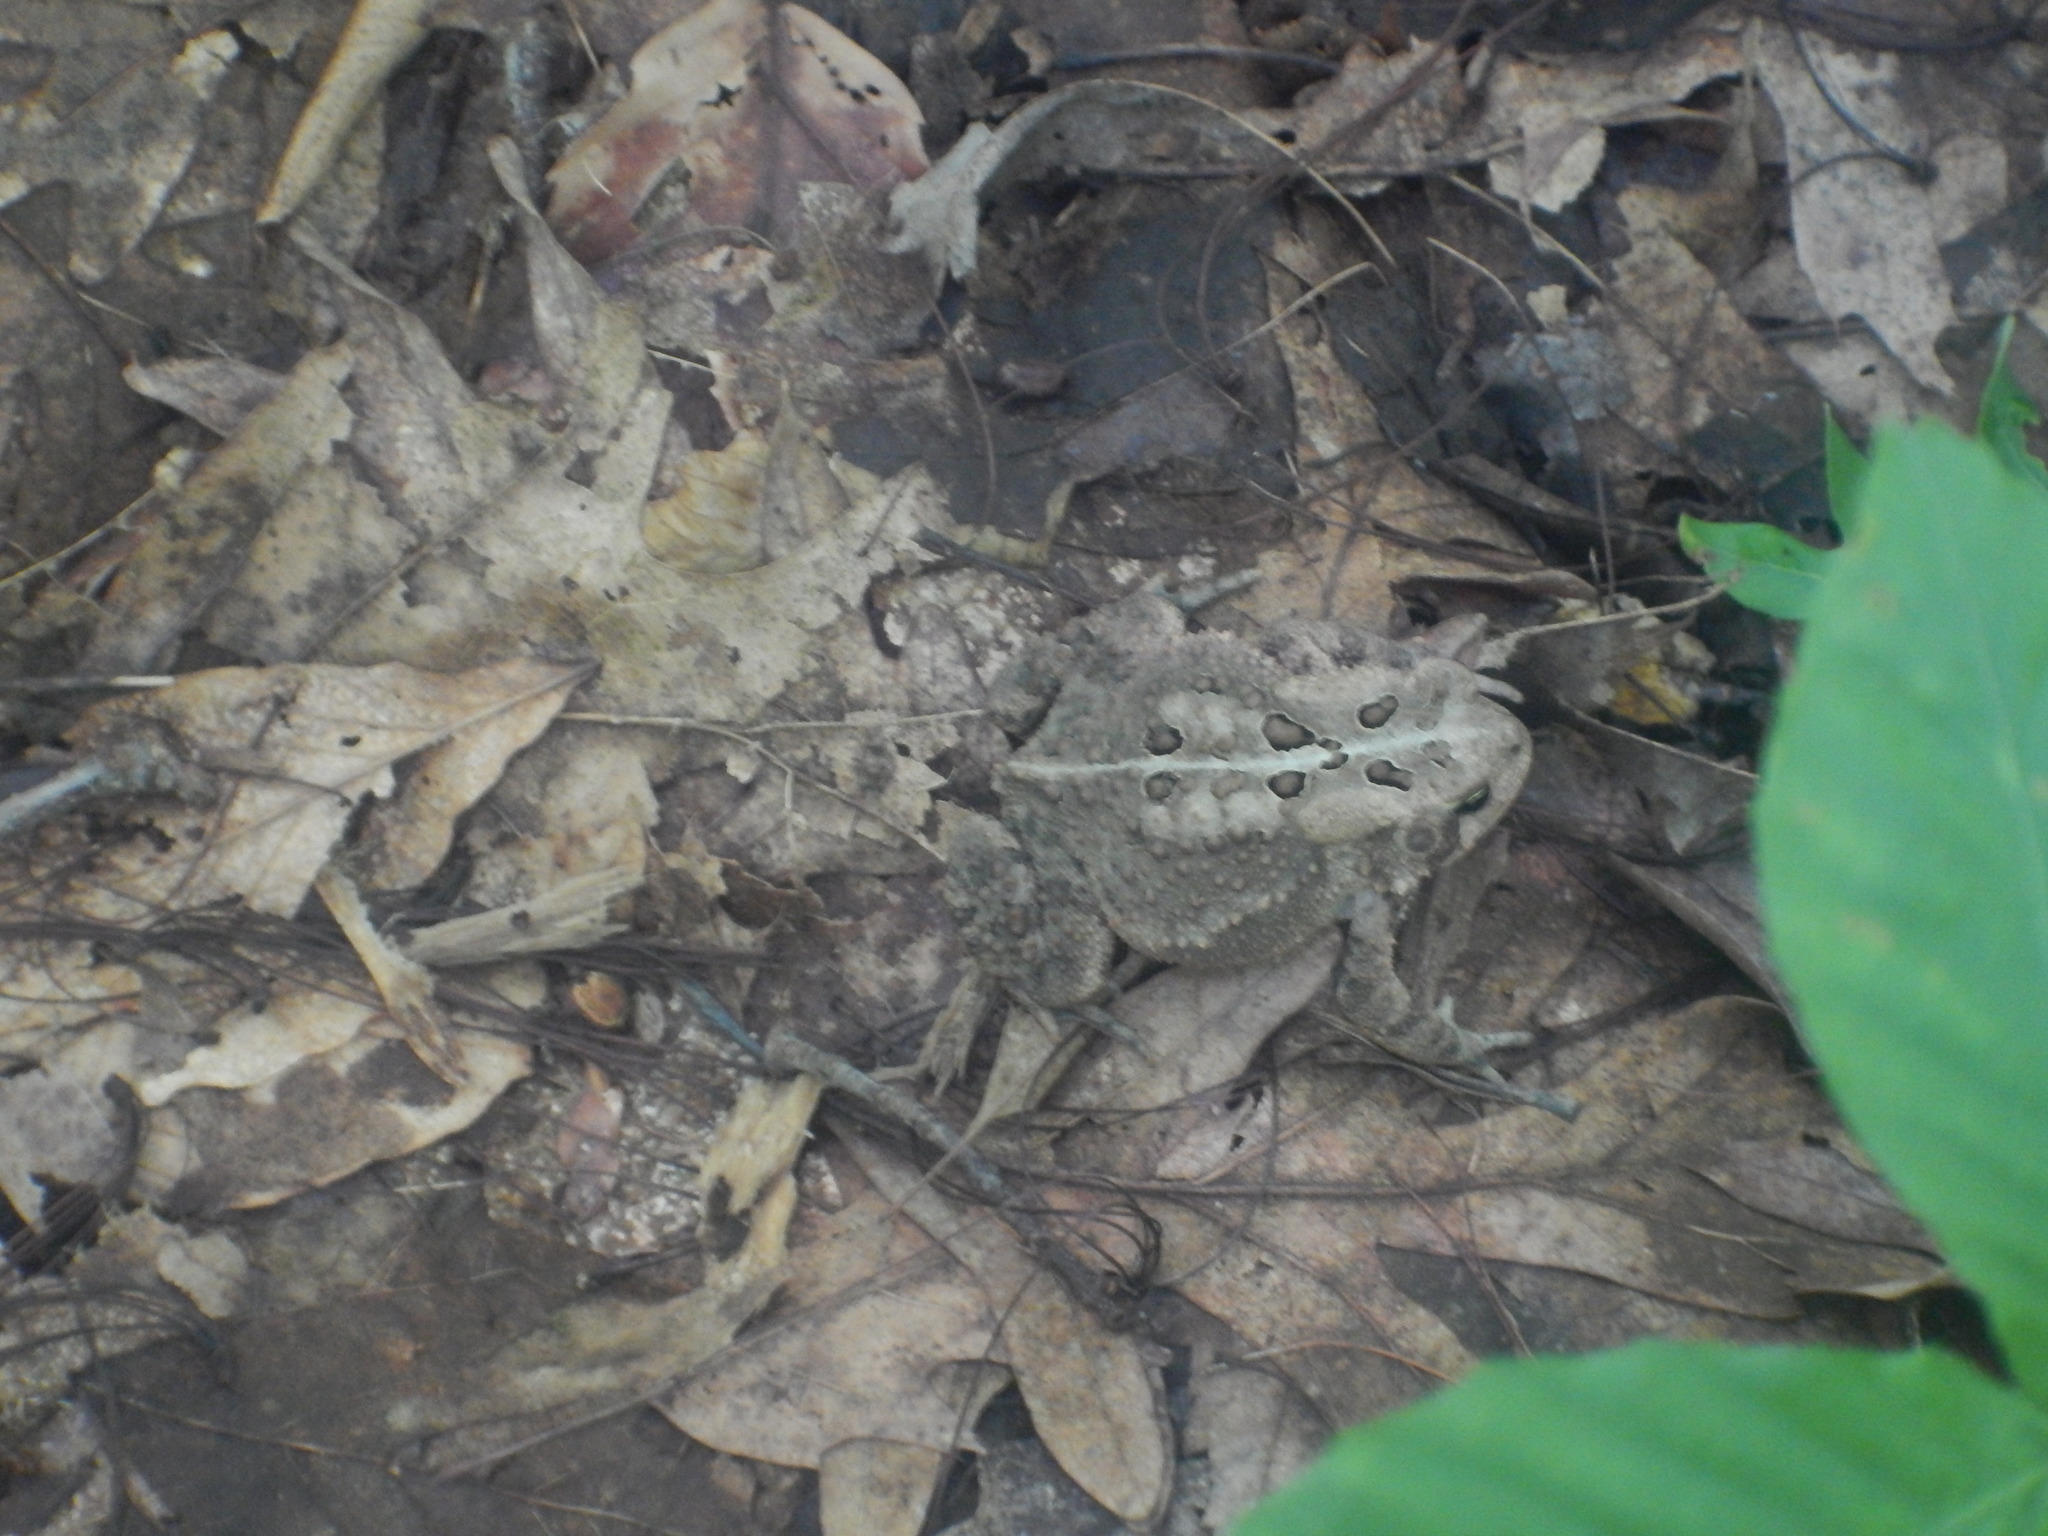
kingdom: Animalia
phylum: Chordata
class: Amphibia
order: Anura
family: Bufonidae
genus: Anaxyrus
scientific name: Anaxyrus americanus
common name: American toad
